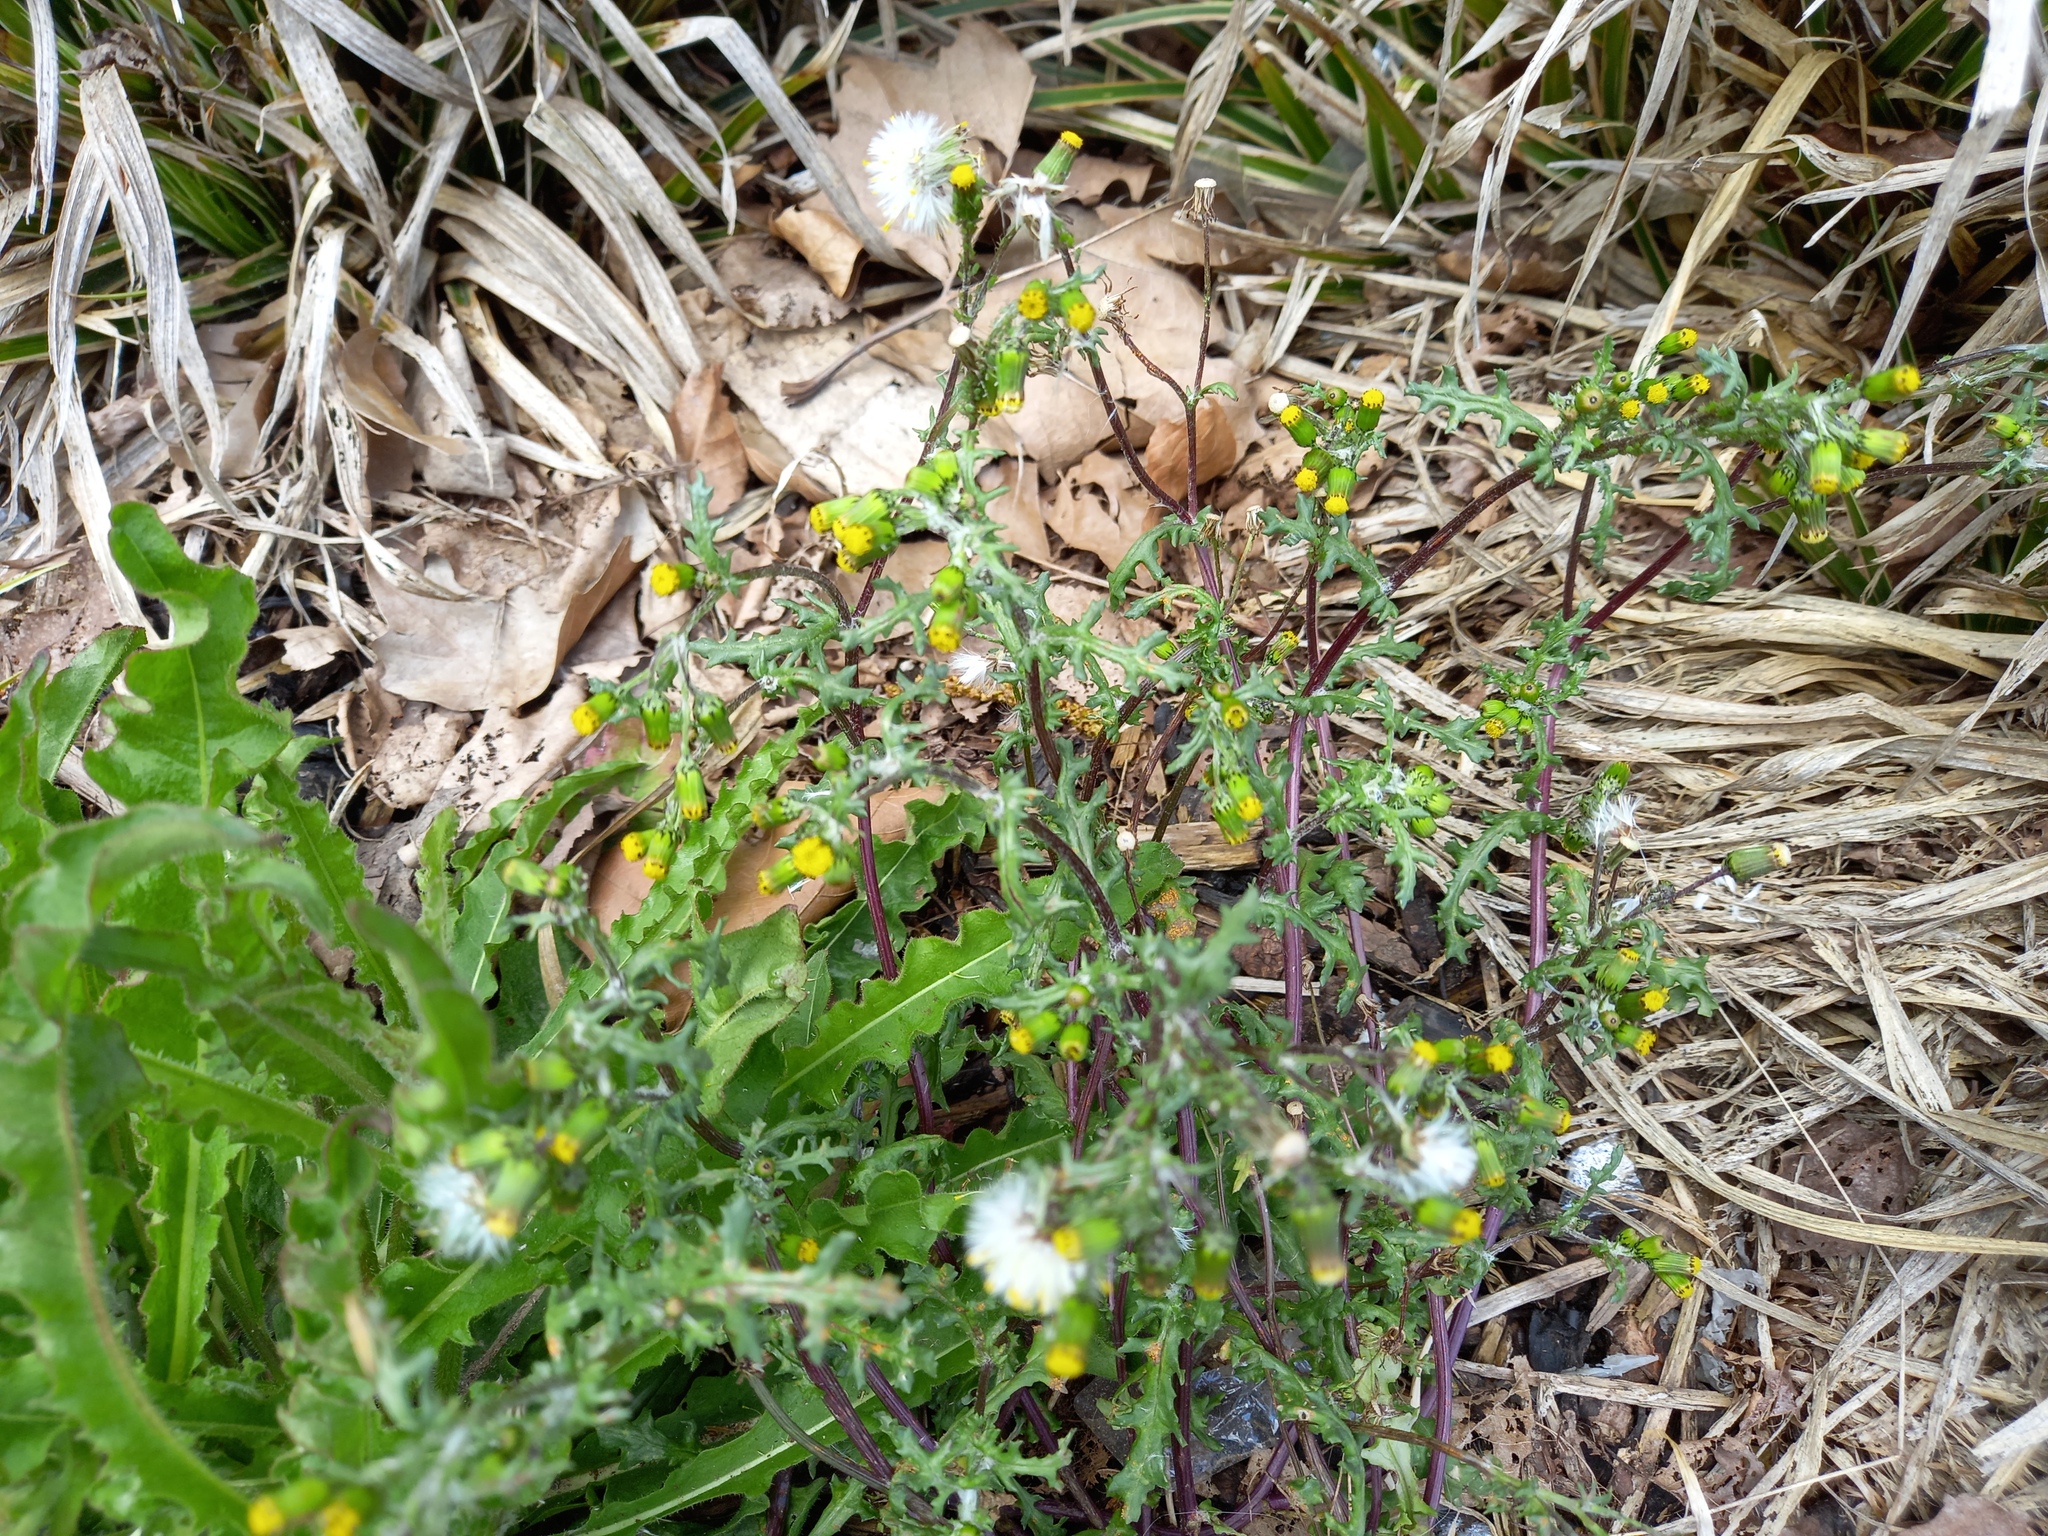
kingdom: Plantae
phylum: Tracheophyta
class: Magnoliopsida
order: Asterales
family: Asteraceae
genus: Senecio
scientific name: Senecio vulgaris
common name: Old-man-in-the-spring
